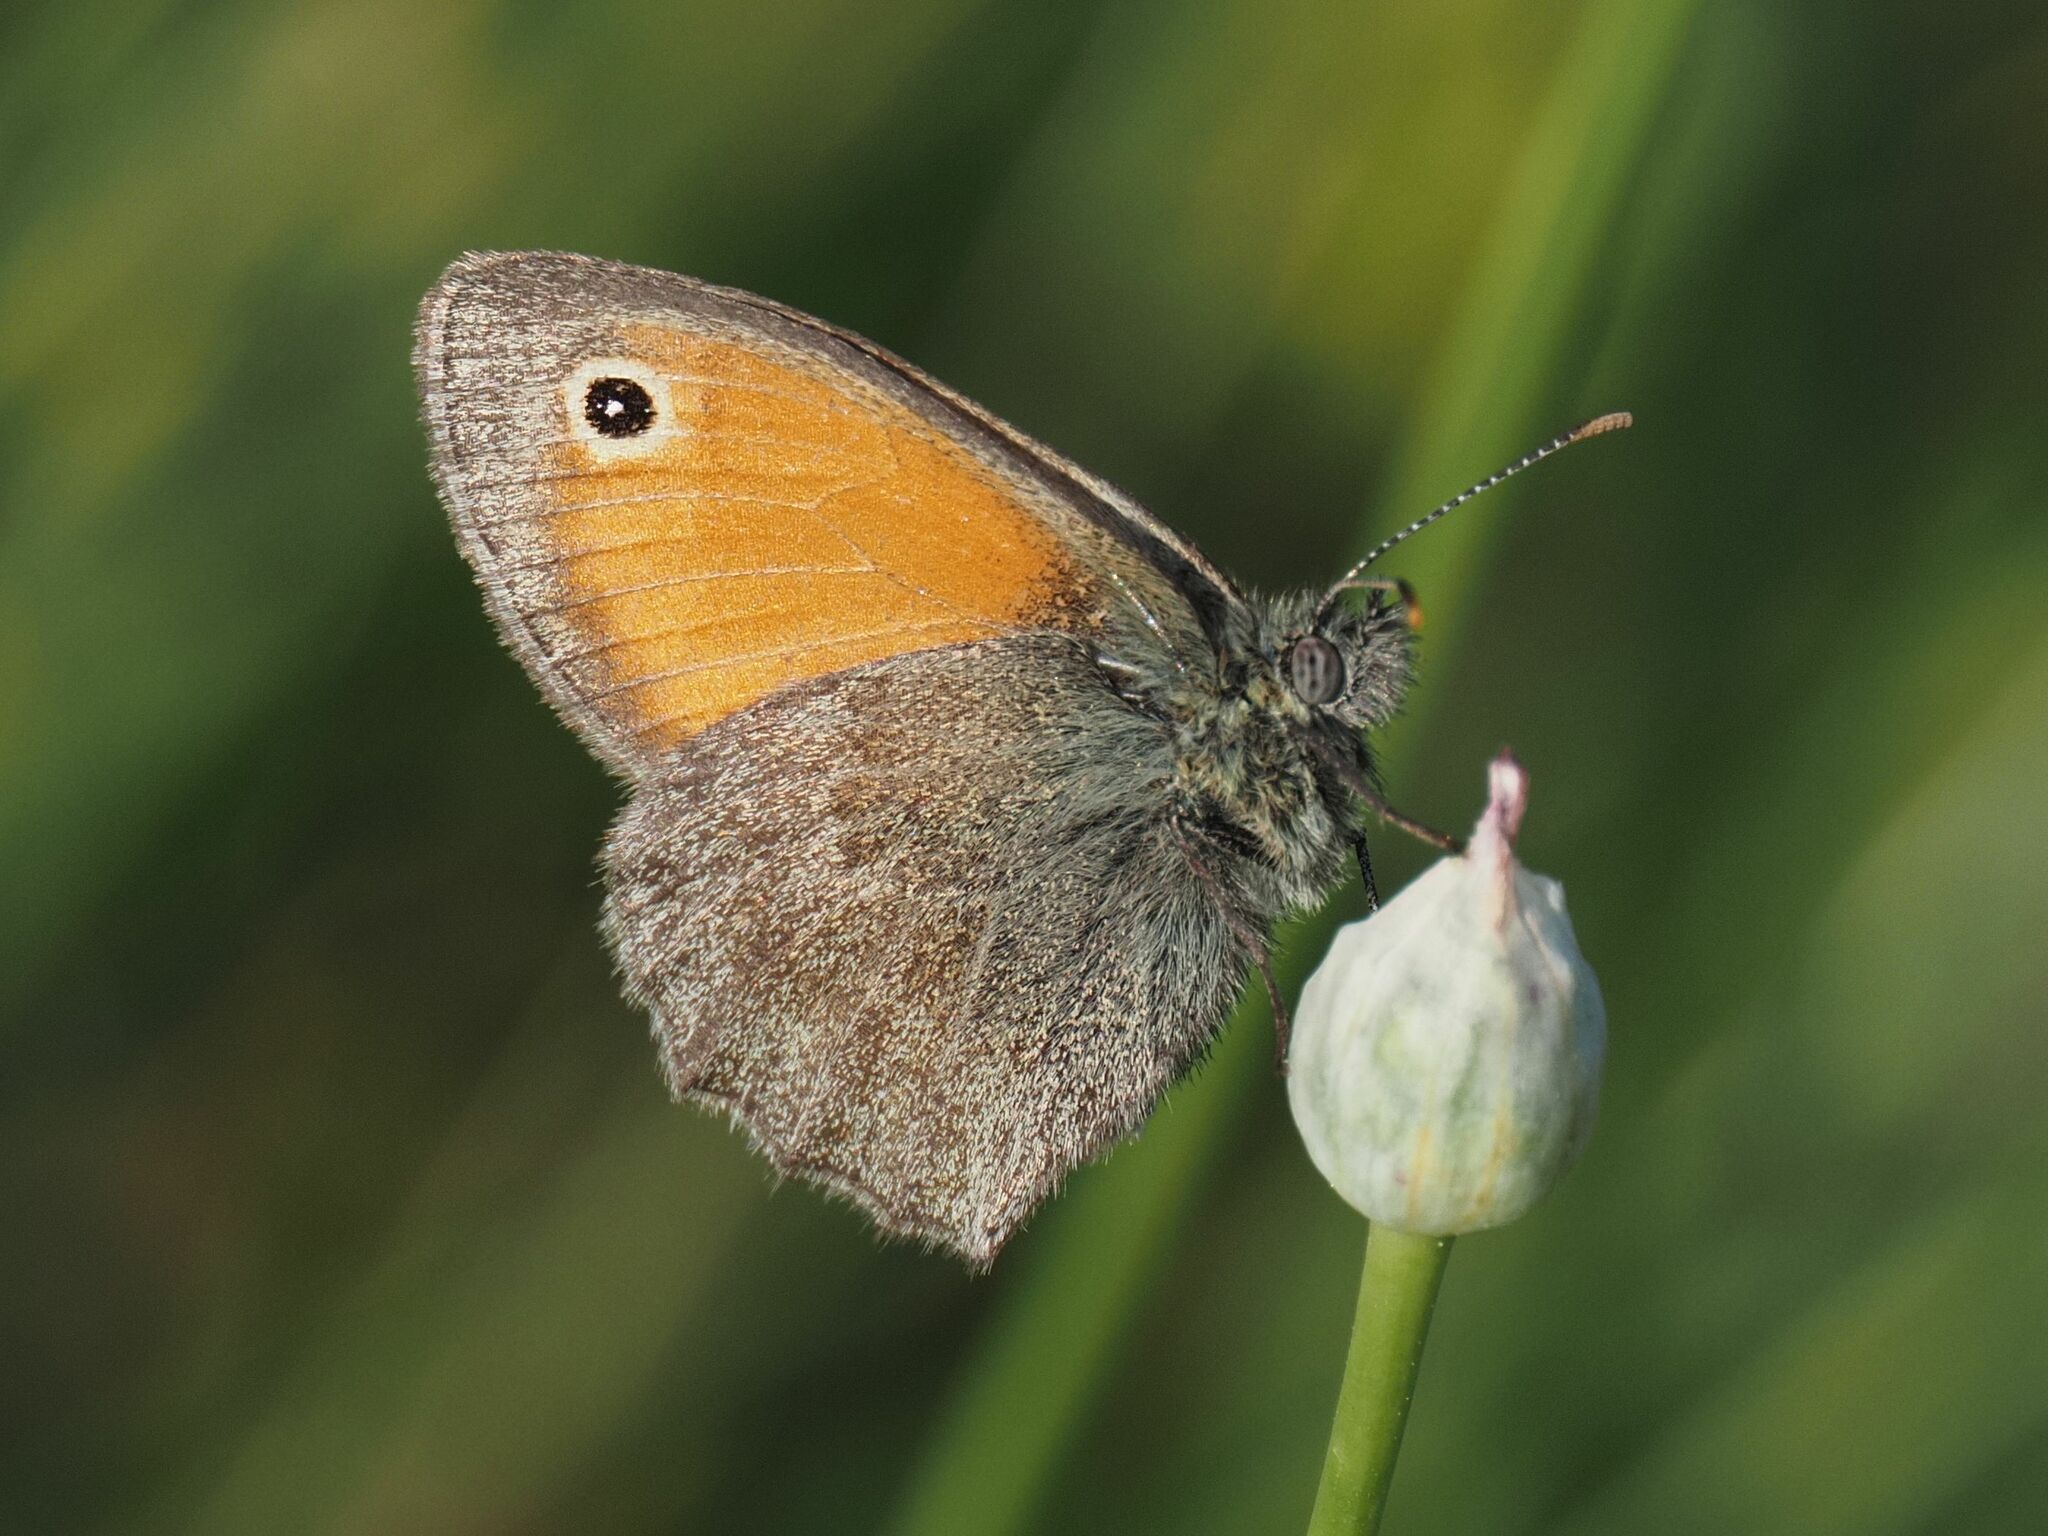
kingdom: Animalia
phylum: Arthropoda
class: Insecta
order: Lepidoptera
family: Nymphalidae
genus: Coenonympha
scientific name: Coenonympha pamphilus
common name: Small heath
